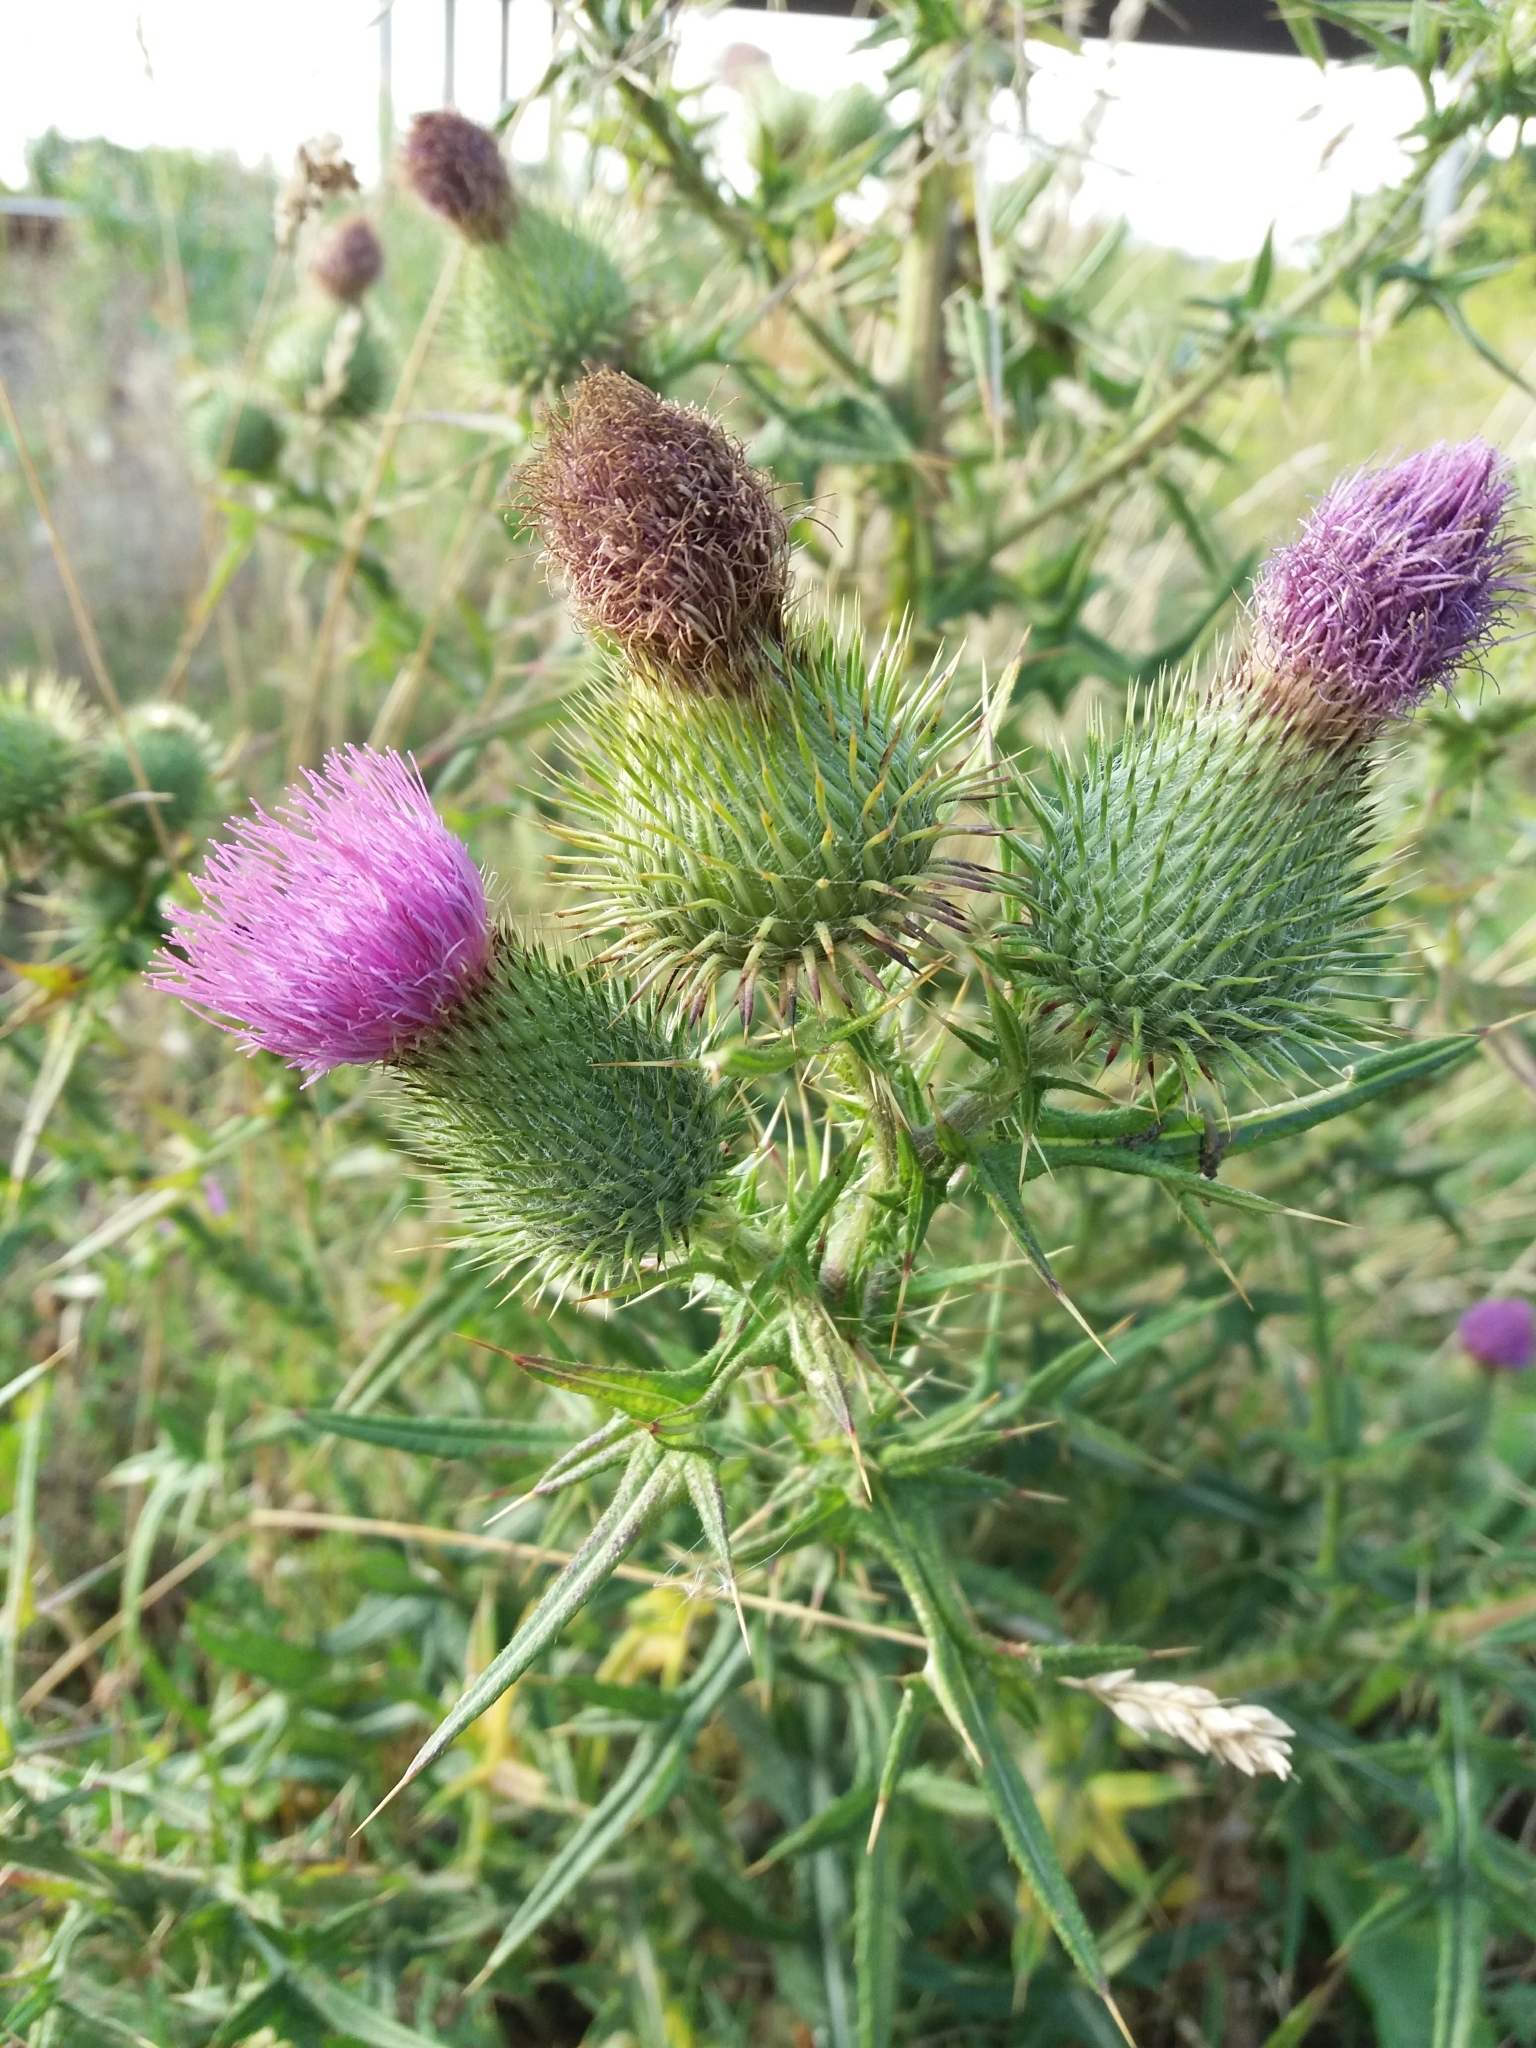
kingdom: Plantae
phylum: Tracheophyta
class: Magnoliopsida
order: Asterales
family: Asteraceae
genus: Cirsium
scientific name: Cirsium vulgare
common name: Bull thistle
